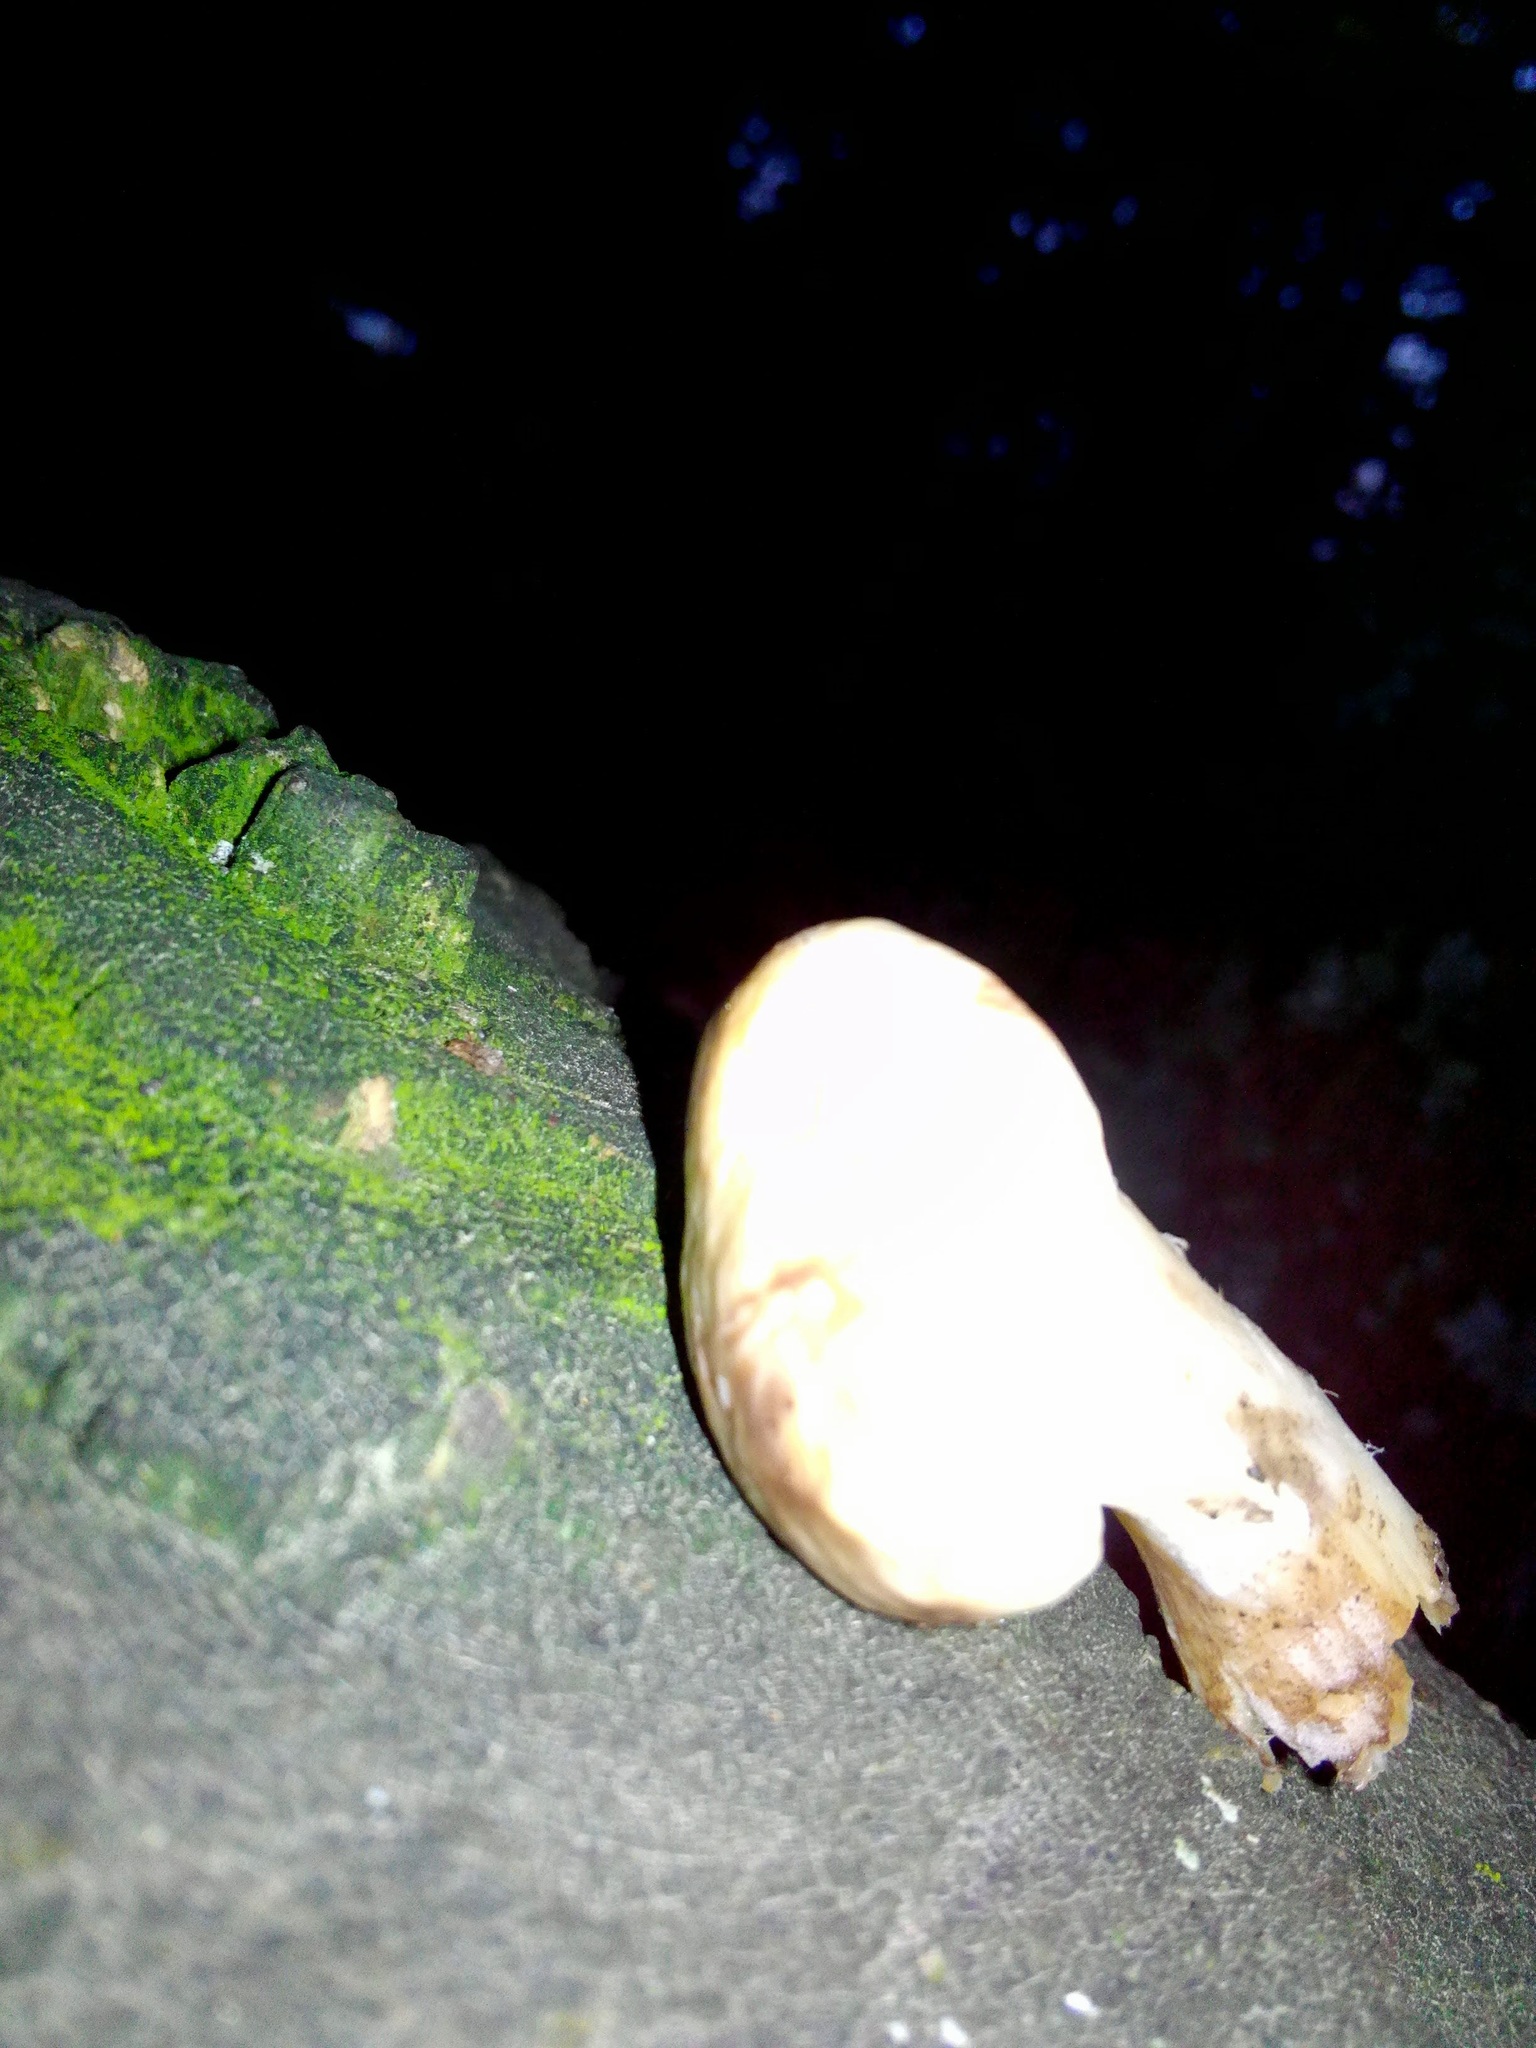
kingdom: Fungi
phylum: Basidiomycota
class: Agaricomycetes
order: Boletales
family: Suillaceae
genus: Suillus
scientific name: Suillus placidus
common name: Slippery white bolete
